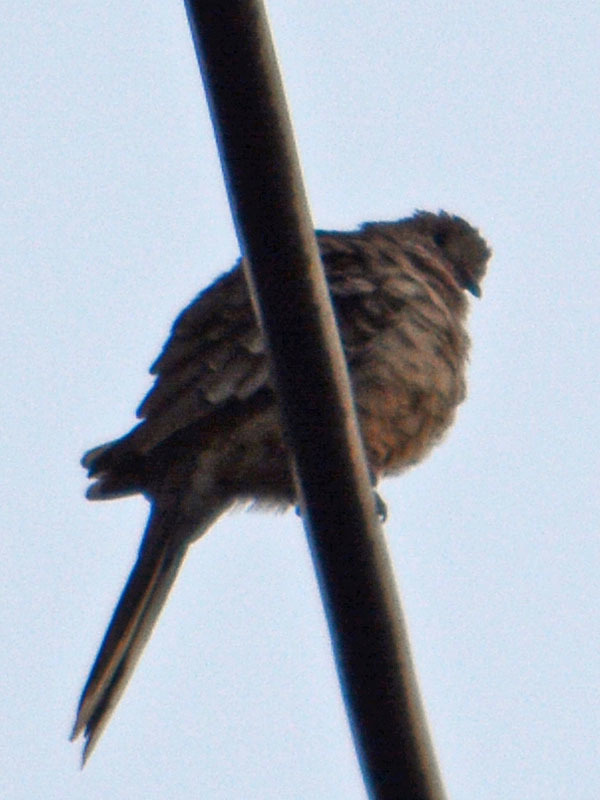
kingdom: Animalia
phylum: Chordata
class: Aves
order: Columbiformes
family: Columbidae
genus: Columbina
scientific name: Columbina inca
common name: Inca dove
